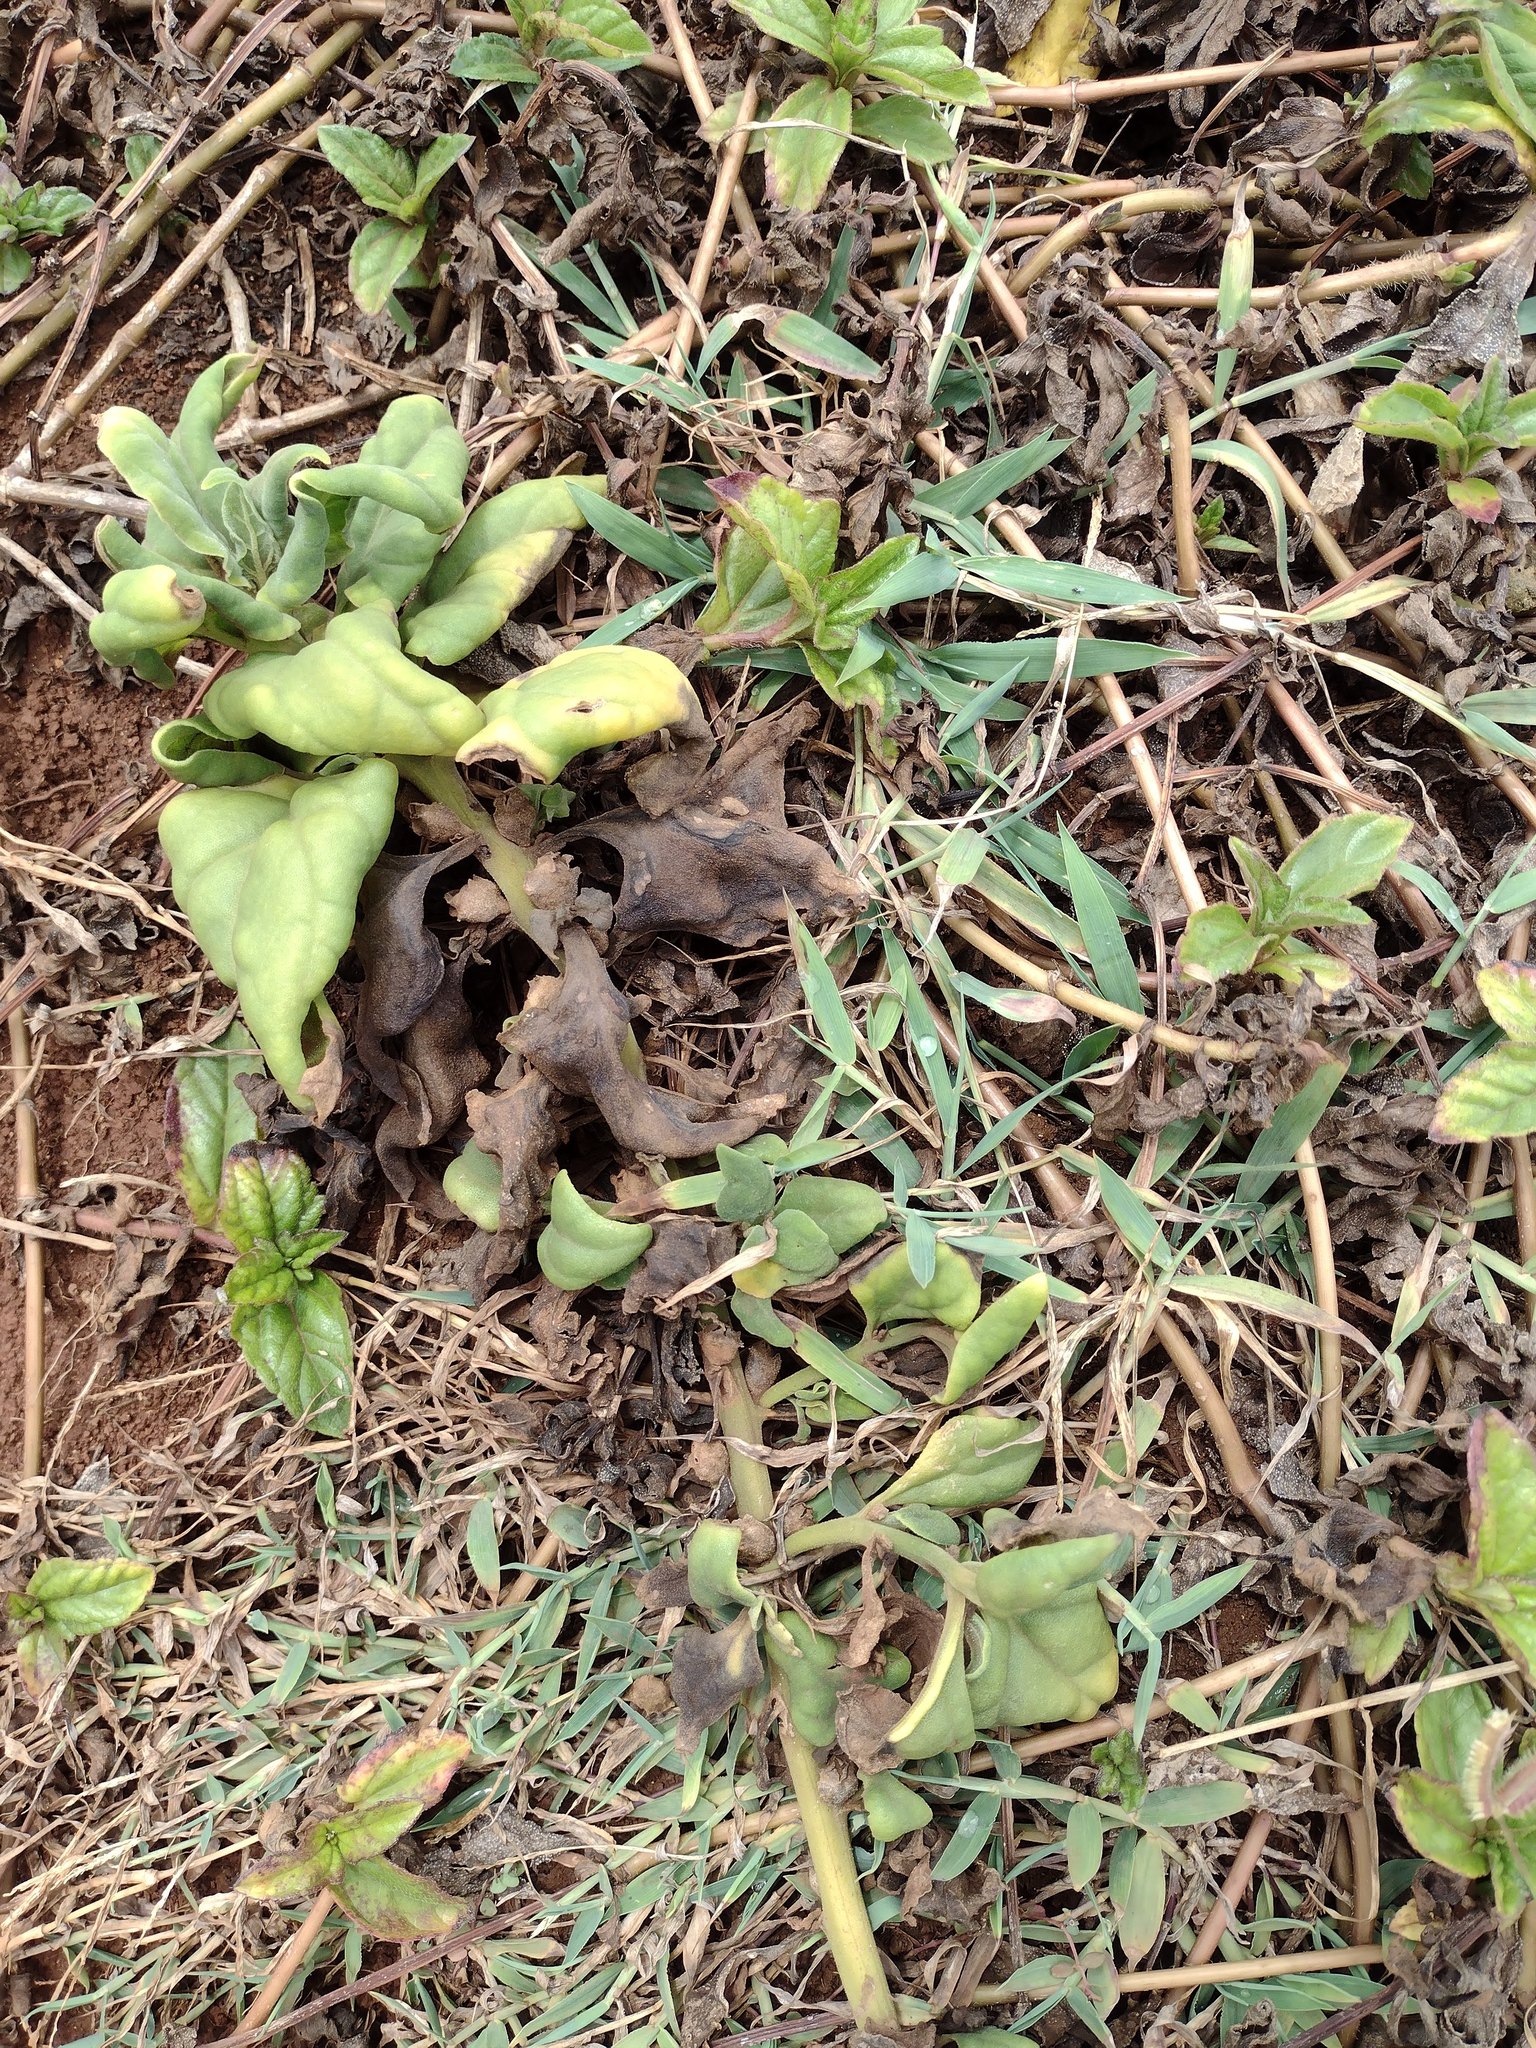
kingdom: Plantae
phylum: Tracheophyta
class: Magnoliopsida
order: Caryophyllales
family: Aizoaceae
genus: Tetragonia
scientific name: Tetragonia tetragonoides
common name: New zealand-spinach
